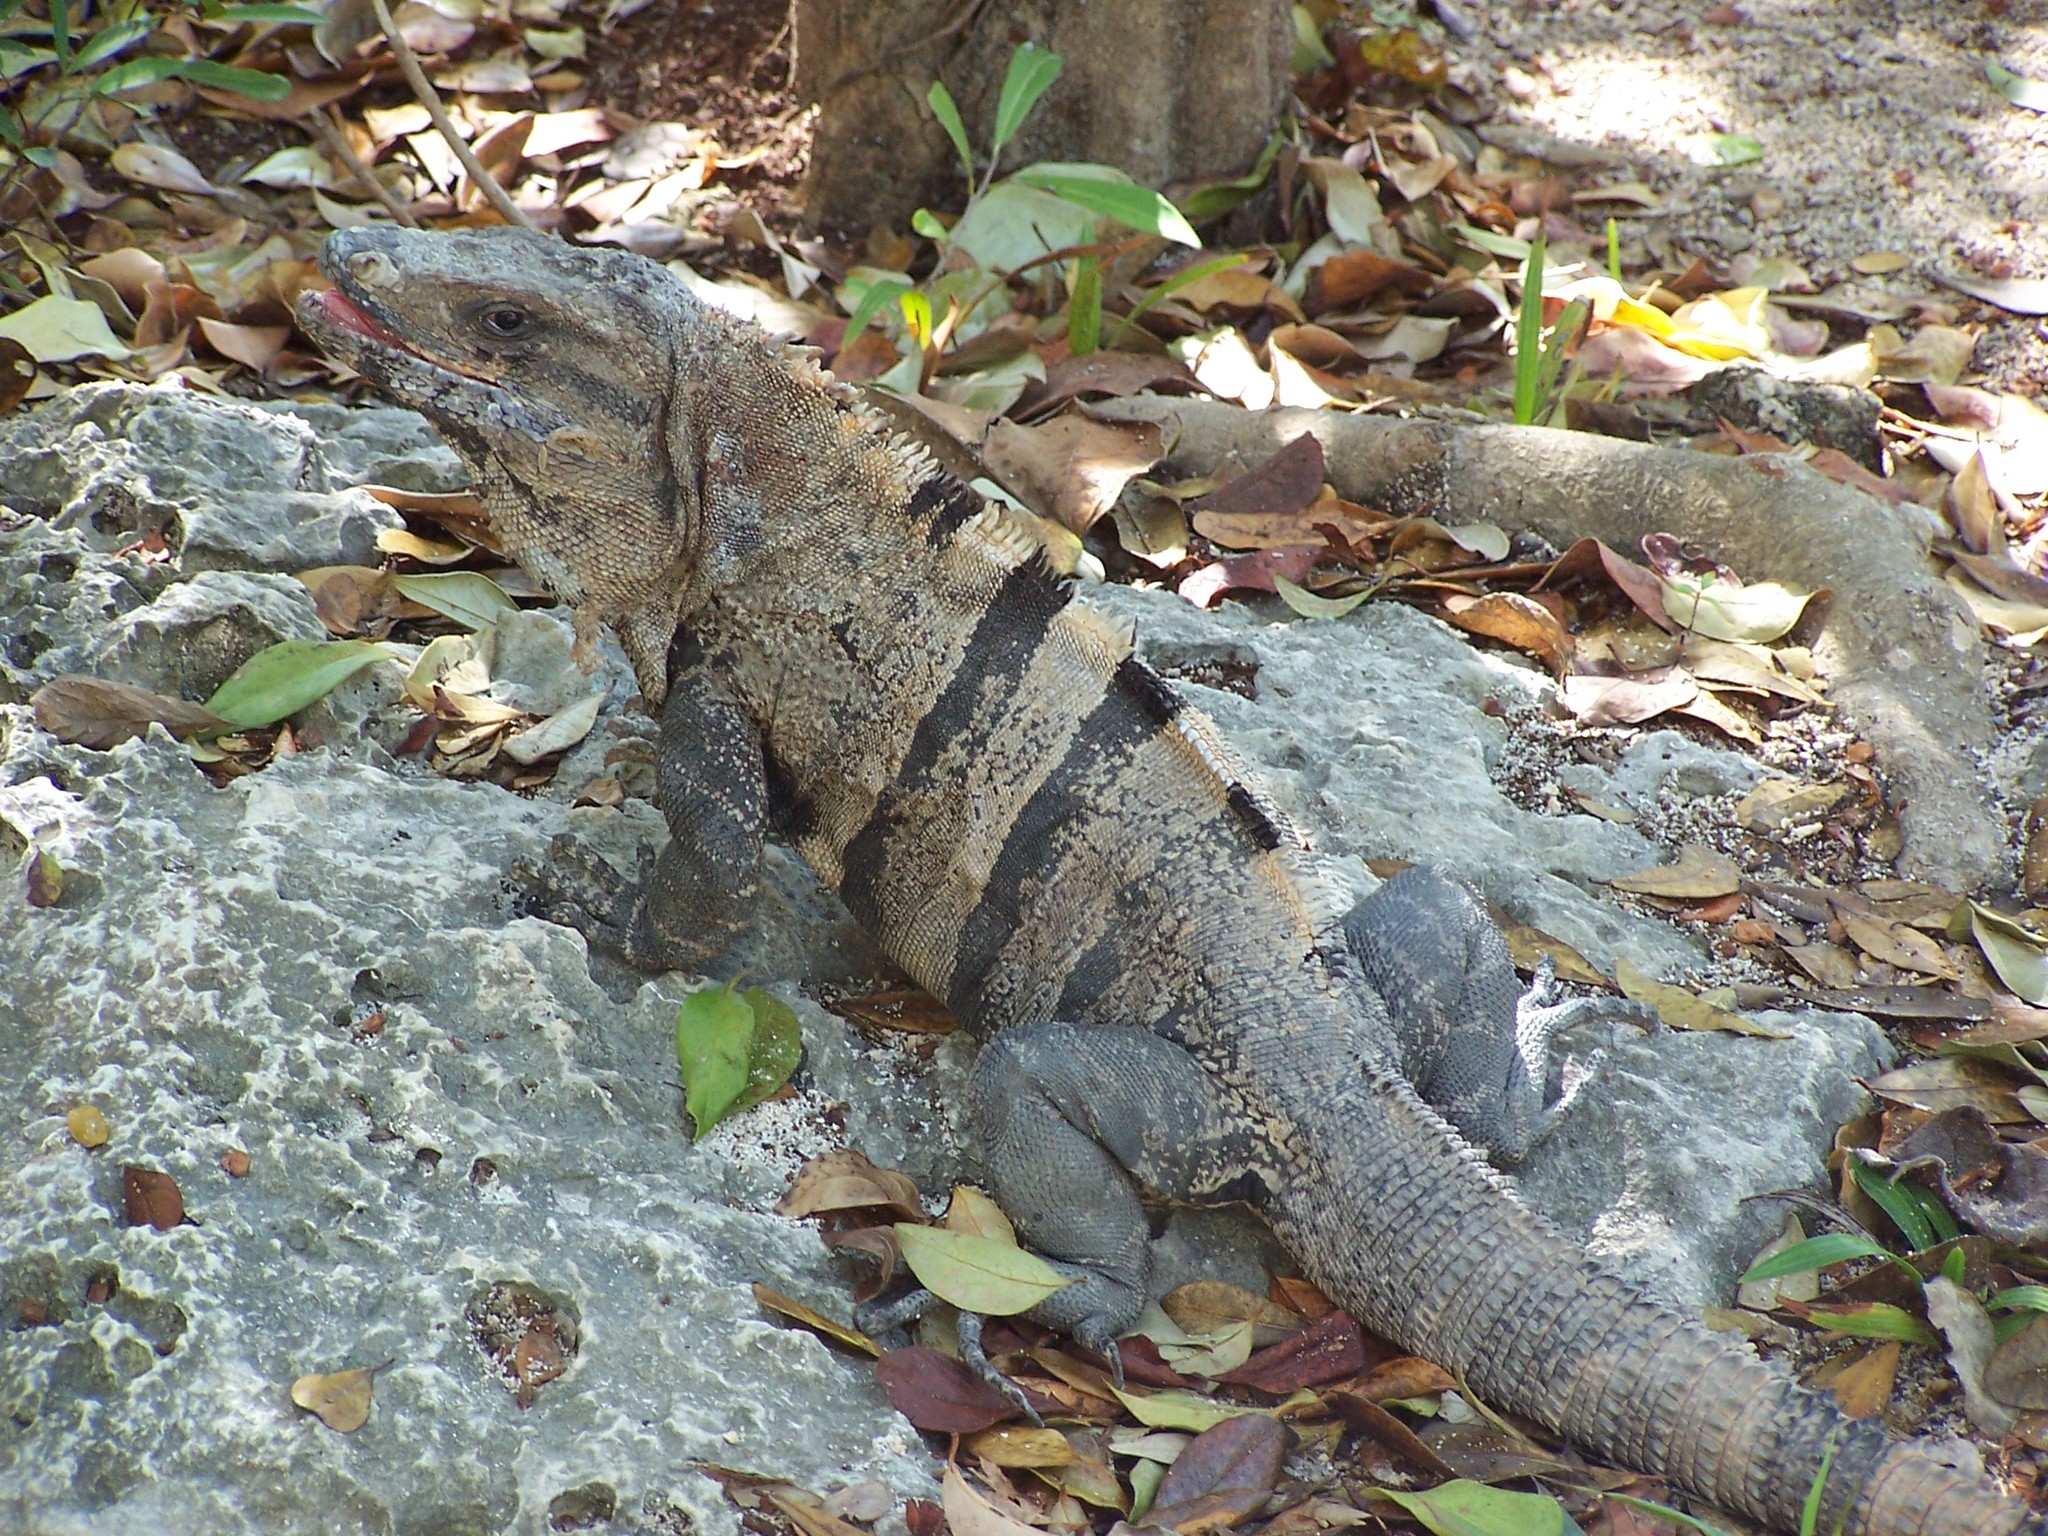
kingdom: Animalia
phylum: Chordata
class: Squamata
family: Iguanidae
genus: Ctenosaura
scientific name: Ctenosaura similis
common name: Black spiny-tailed iguana
